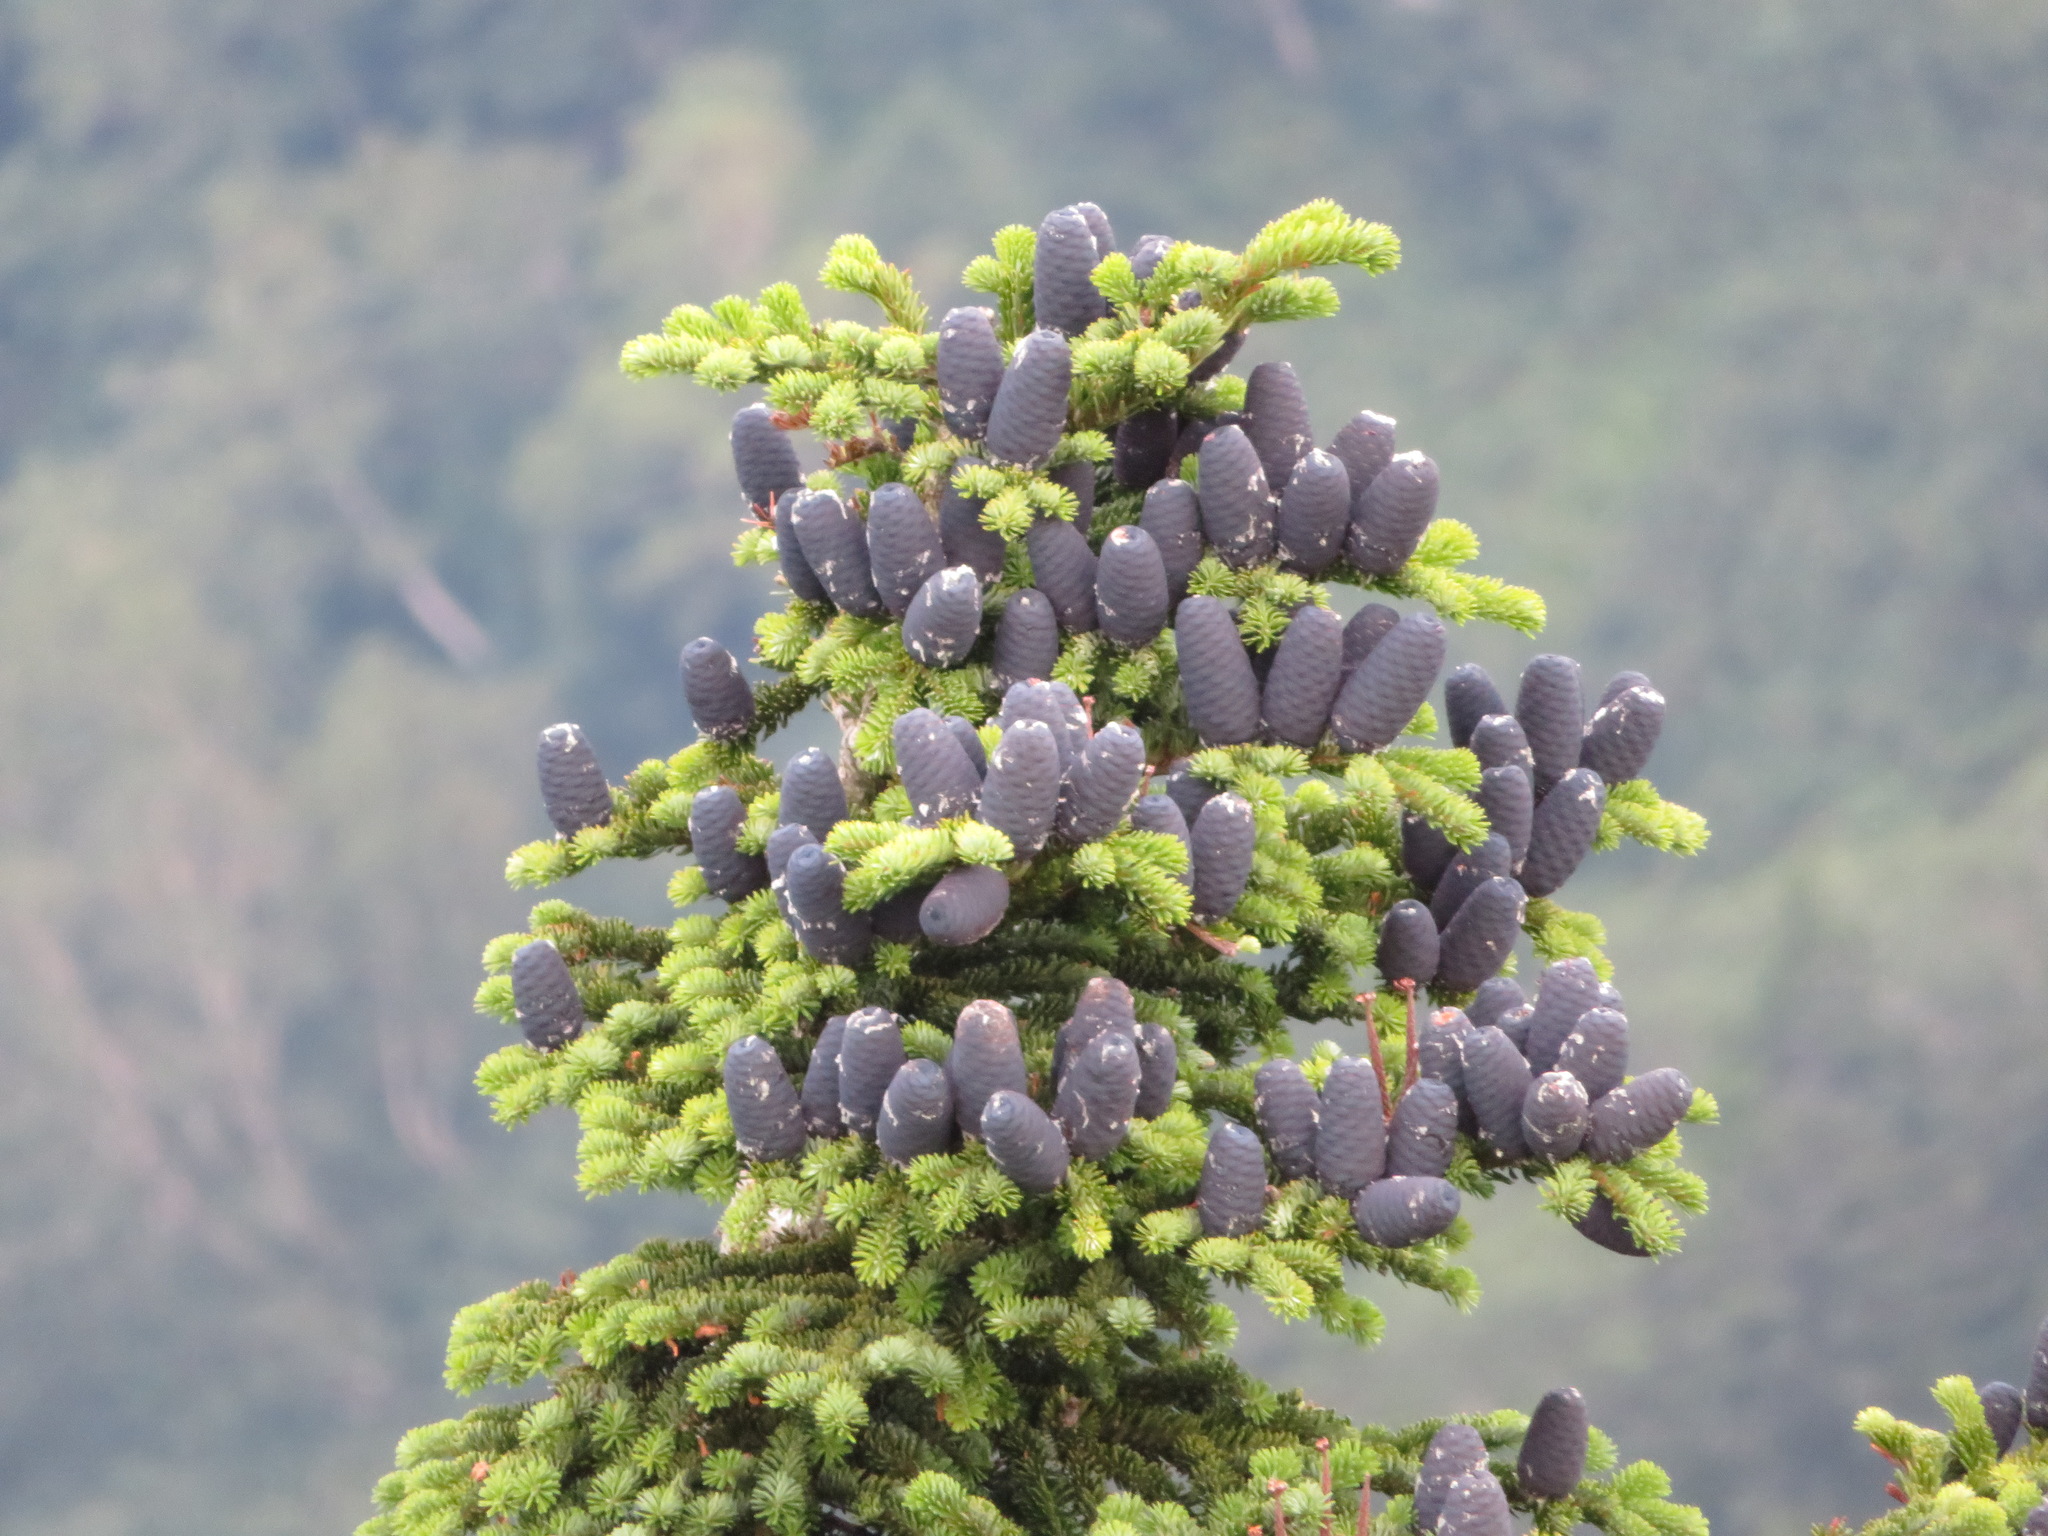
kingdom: Plantae
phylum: Tracheophyta
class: Pinopsida
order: Pinales
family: Pinaceae
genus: Abies
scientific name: Abies mariesii
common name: Marie's fir
